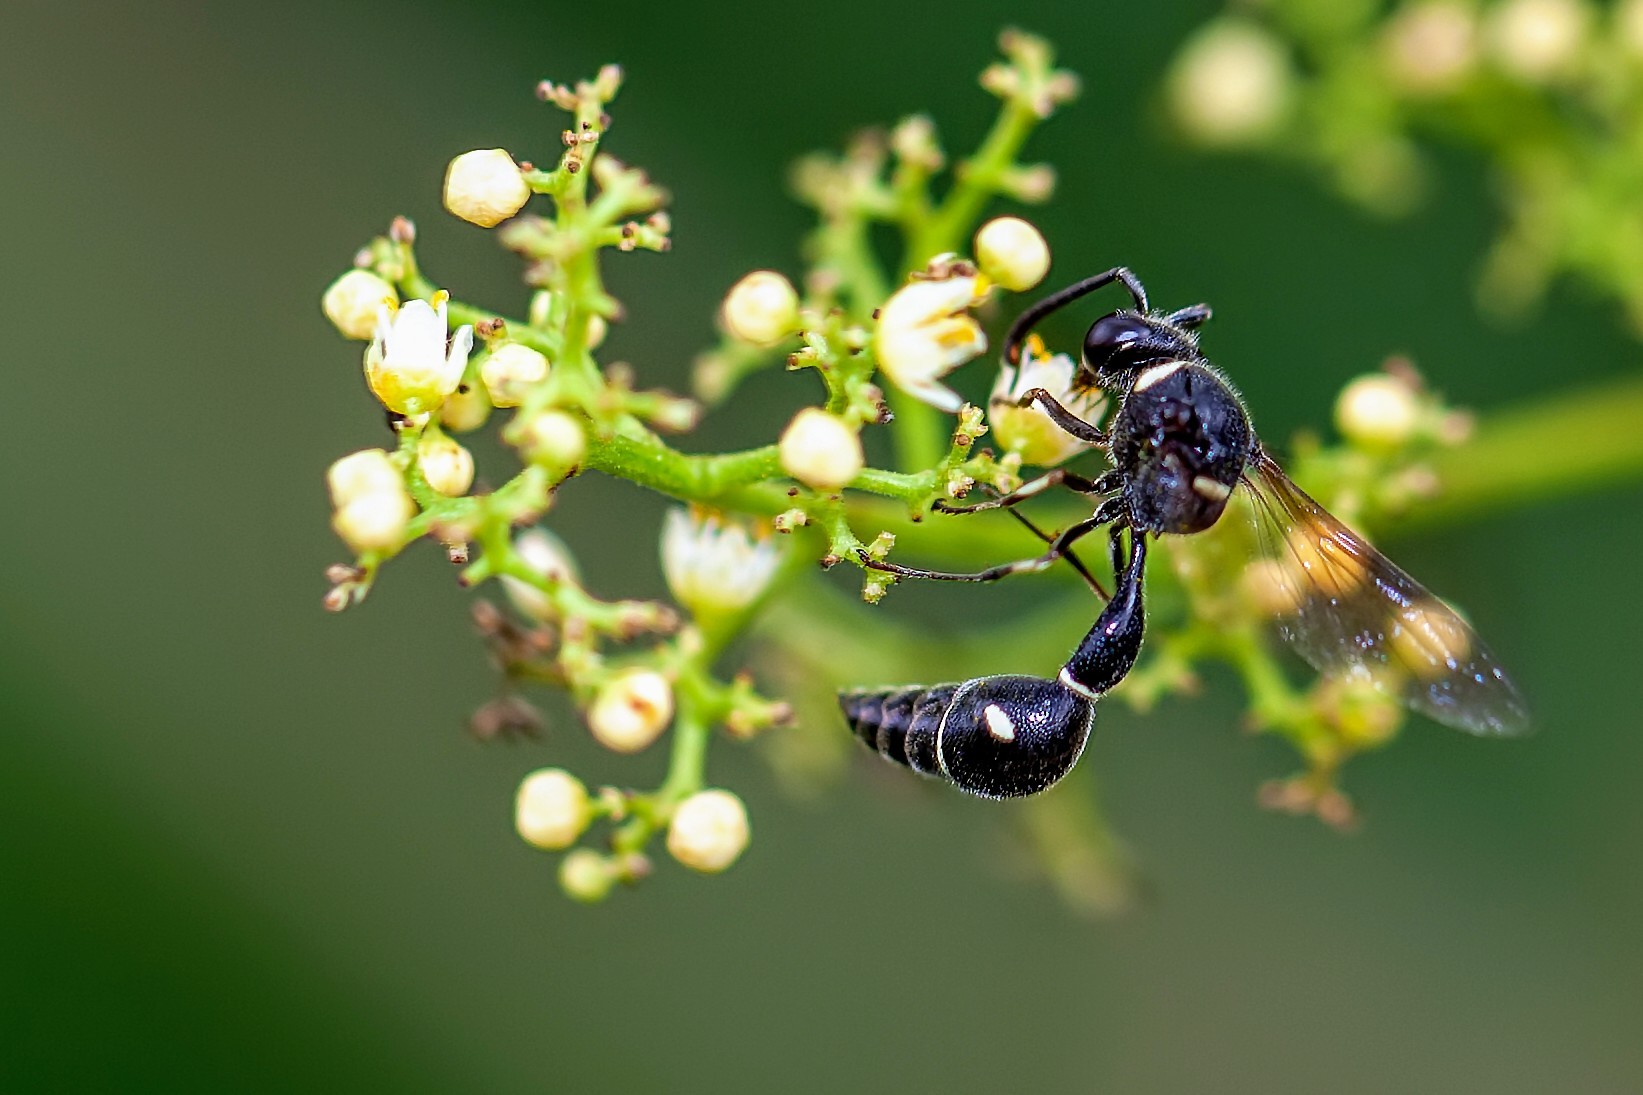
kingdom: Animalia
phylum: Arthropoda
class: Insecta
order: Hymenoptera
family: Vespidae
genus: Eumenes
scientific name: Eumenes fraternus
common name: Fraternal potter wasp
